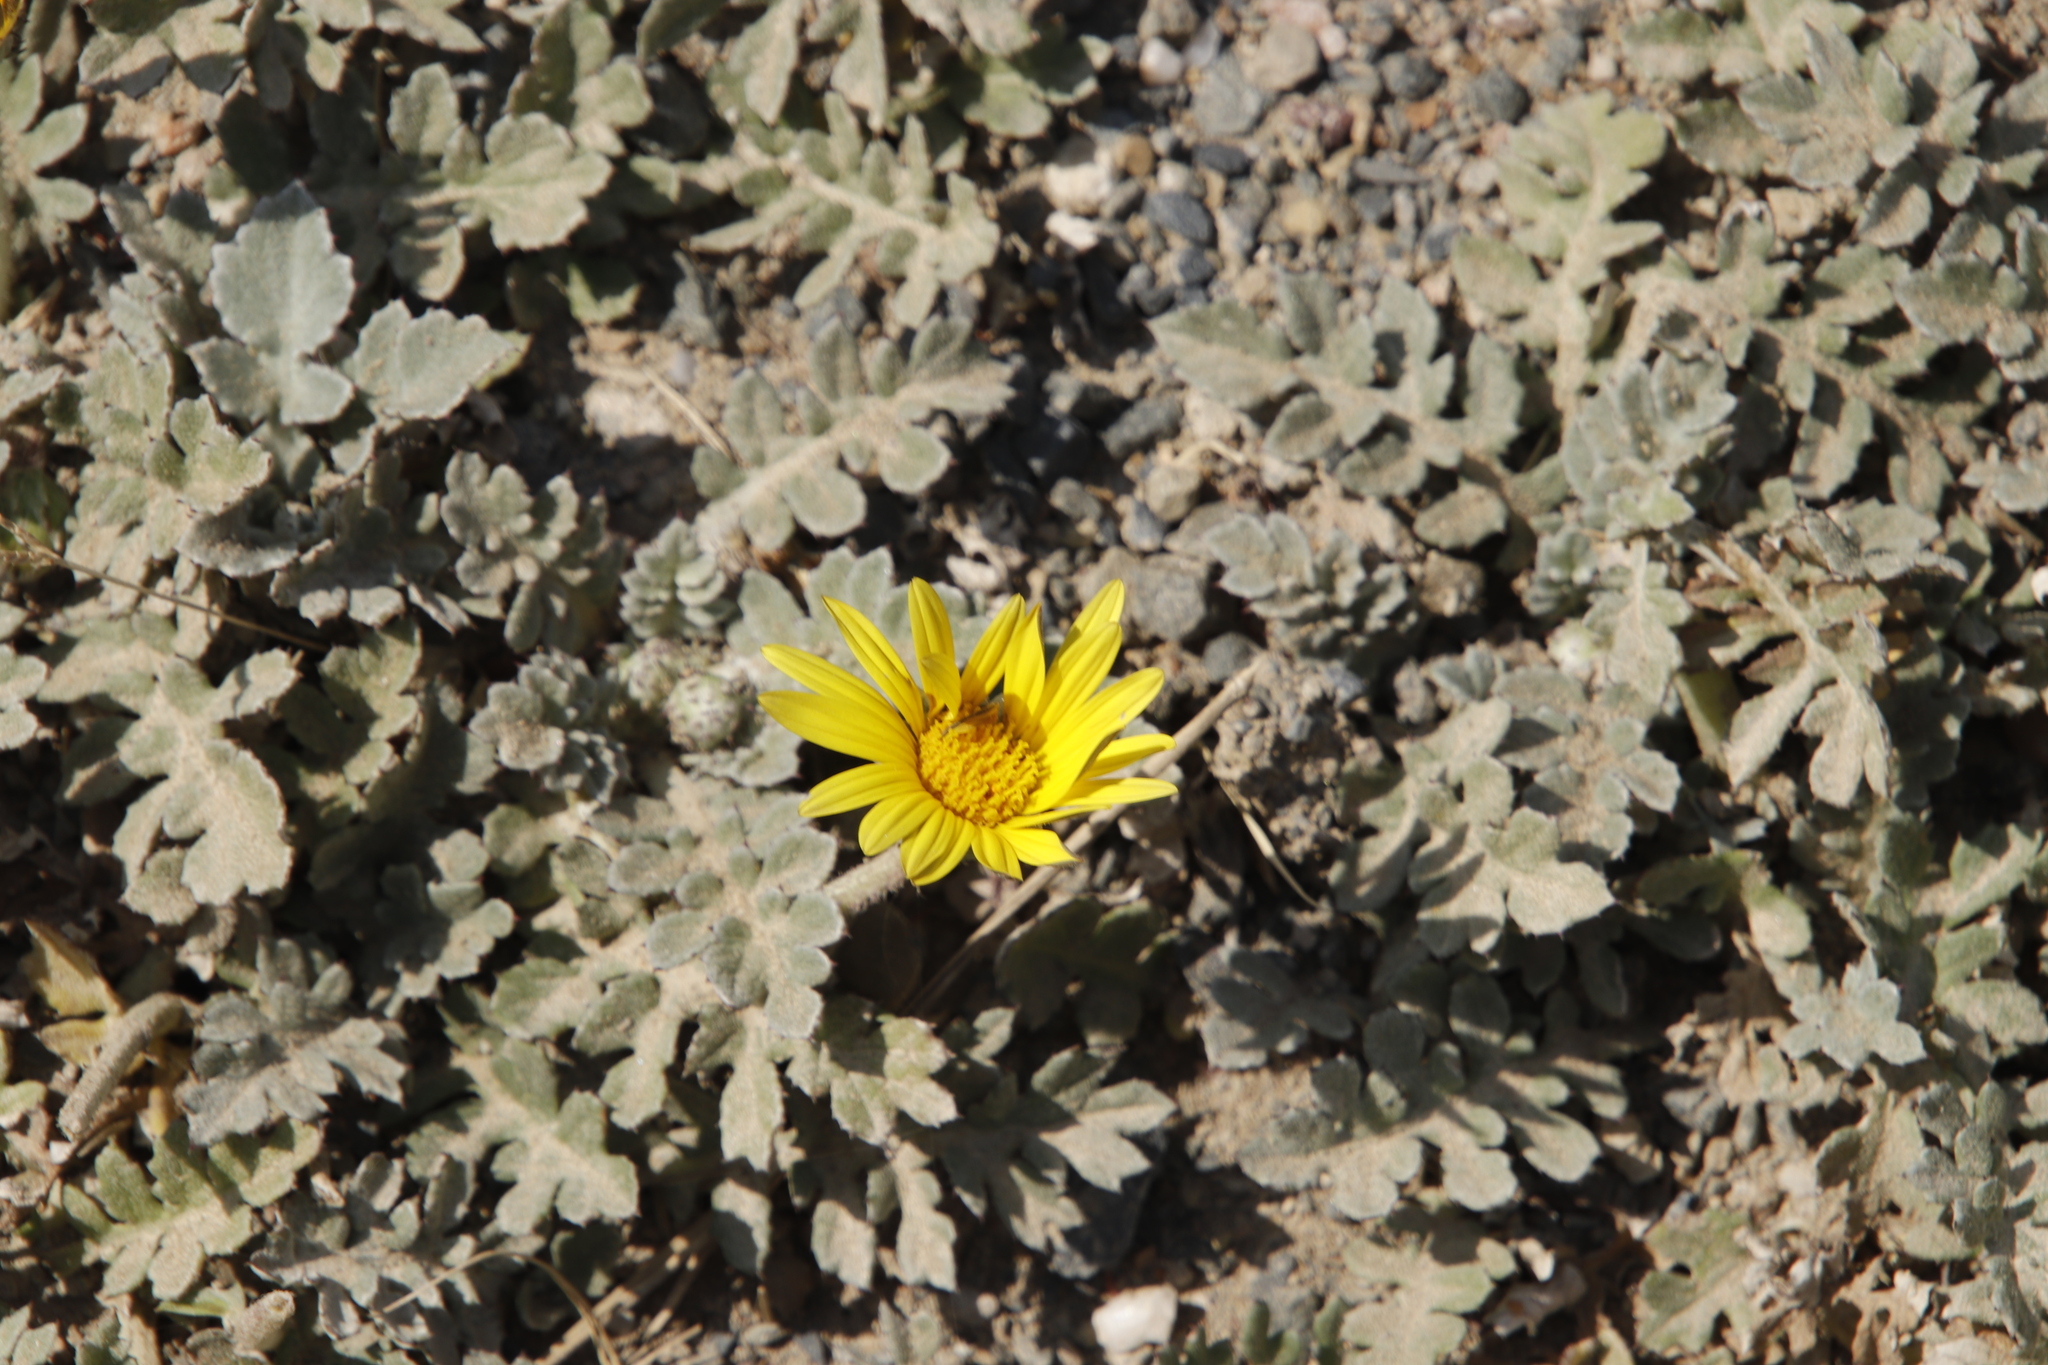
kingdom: Plantae
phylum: Tracheophyta
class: Magnoliopsida
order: Asterales
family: Asteraceae
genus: Arctotheca
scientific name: Arctotheca prostrata
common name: Capeweed
